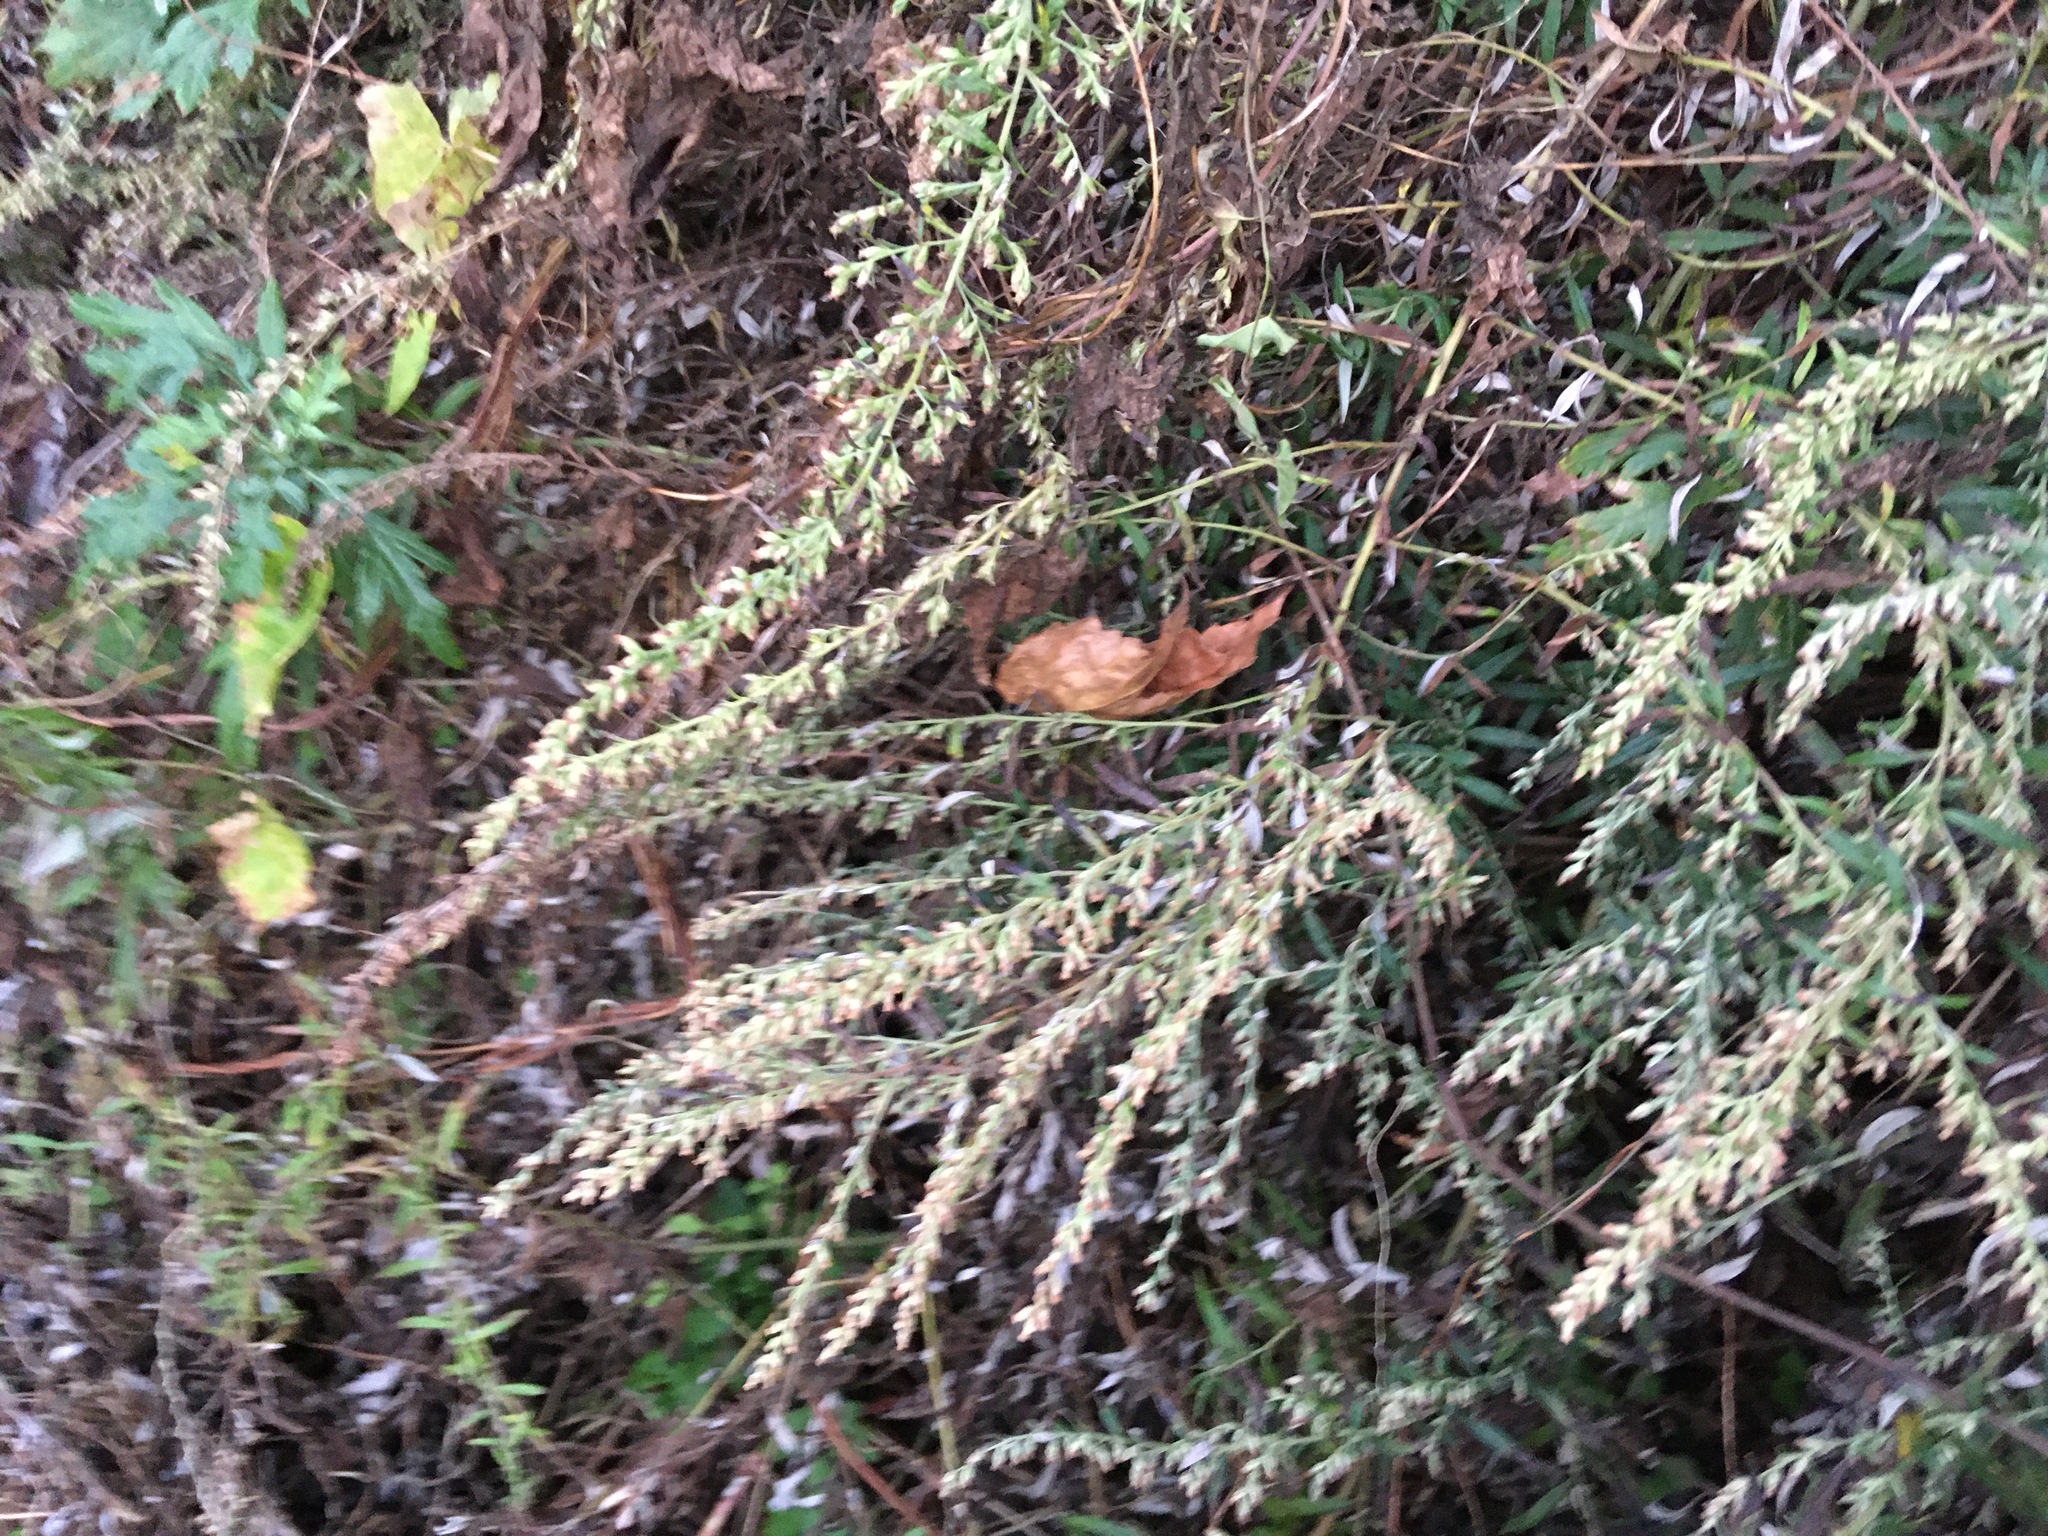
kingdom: Plantae
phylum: Tracheophyta
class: Magnoliopsida
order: Asterales
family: Asteraceae
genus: Artemisia
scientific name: Artemisia vulgaris
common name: Mugwort
